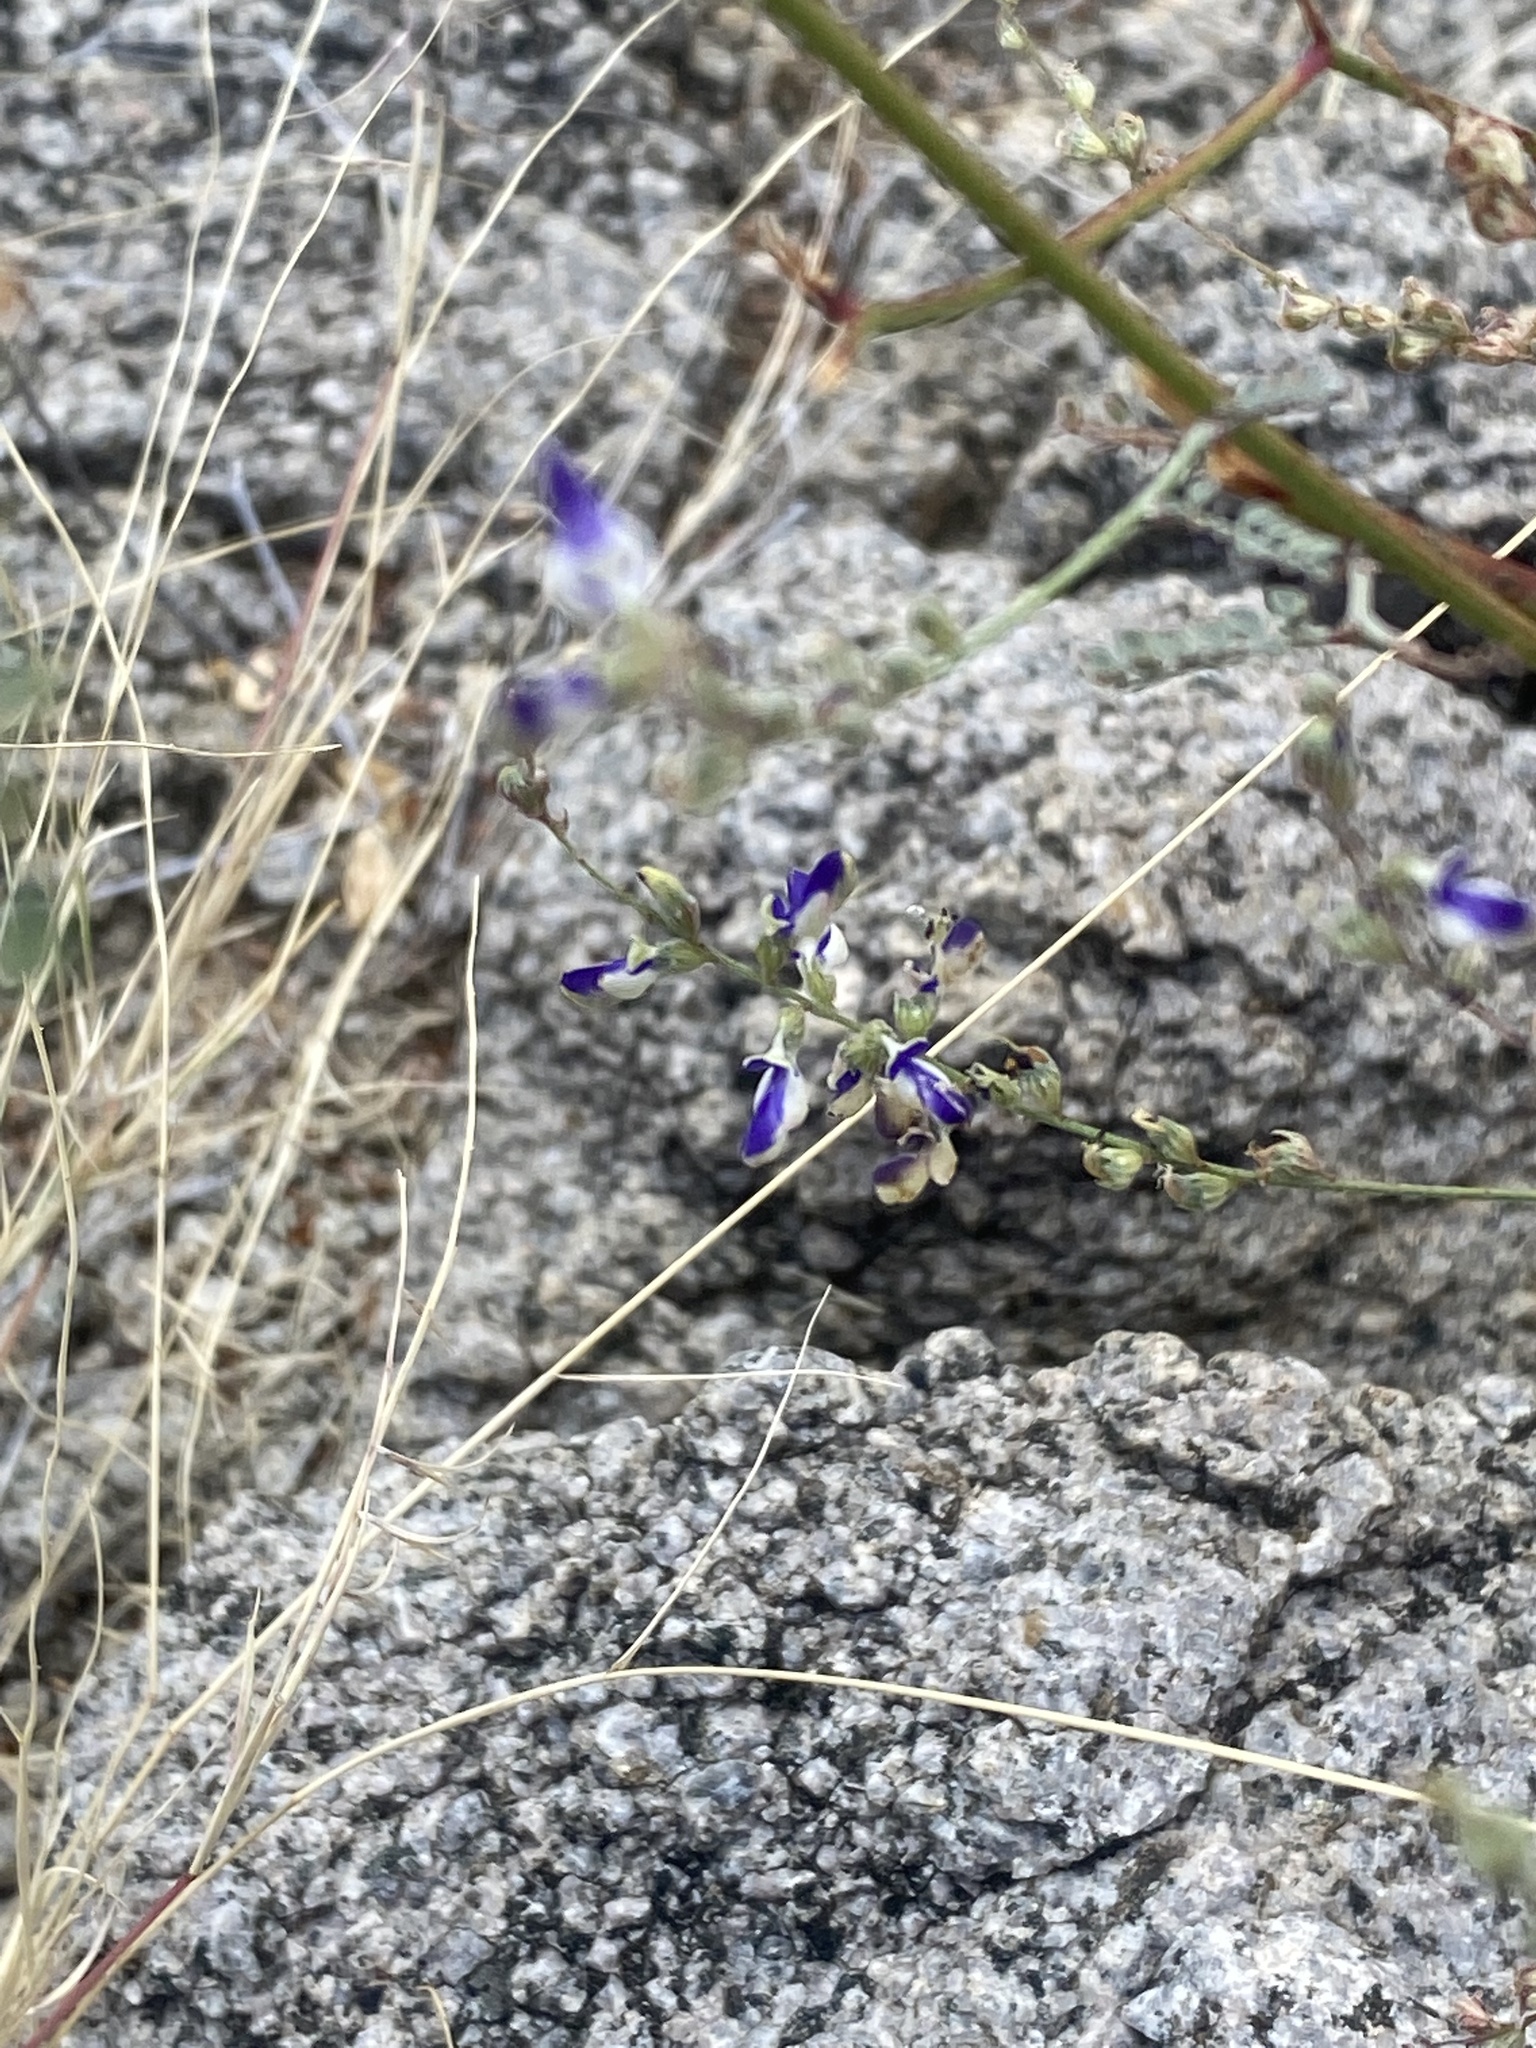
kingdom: Plantae
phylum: Tracheophyta
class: Magnoliopsida
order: Fabales
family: Fabaceae
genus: Marina
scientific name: Marina parryi
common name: Parry's marina
